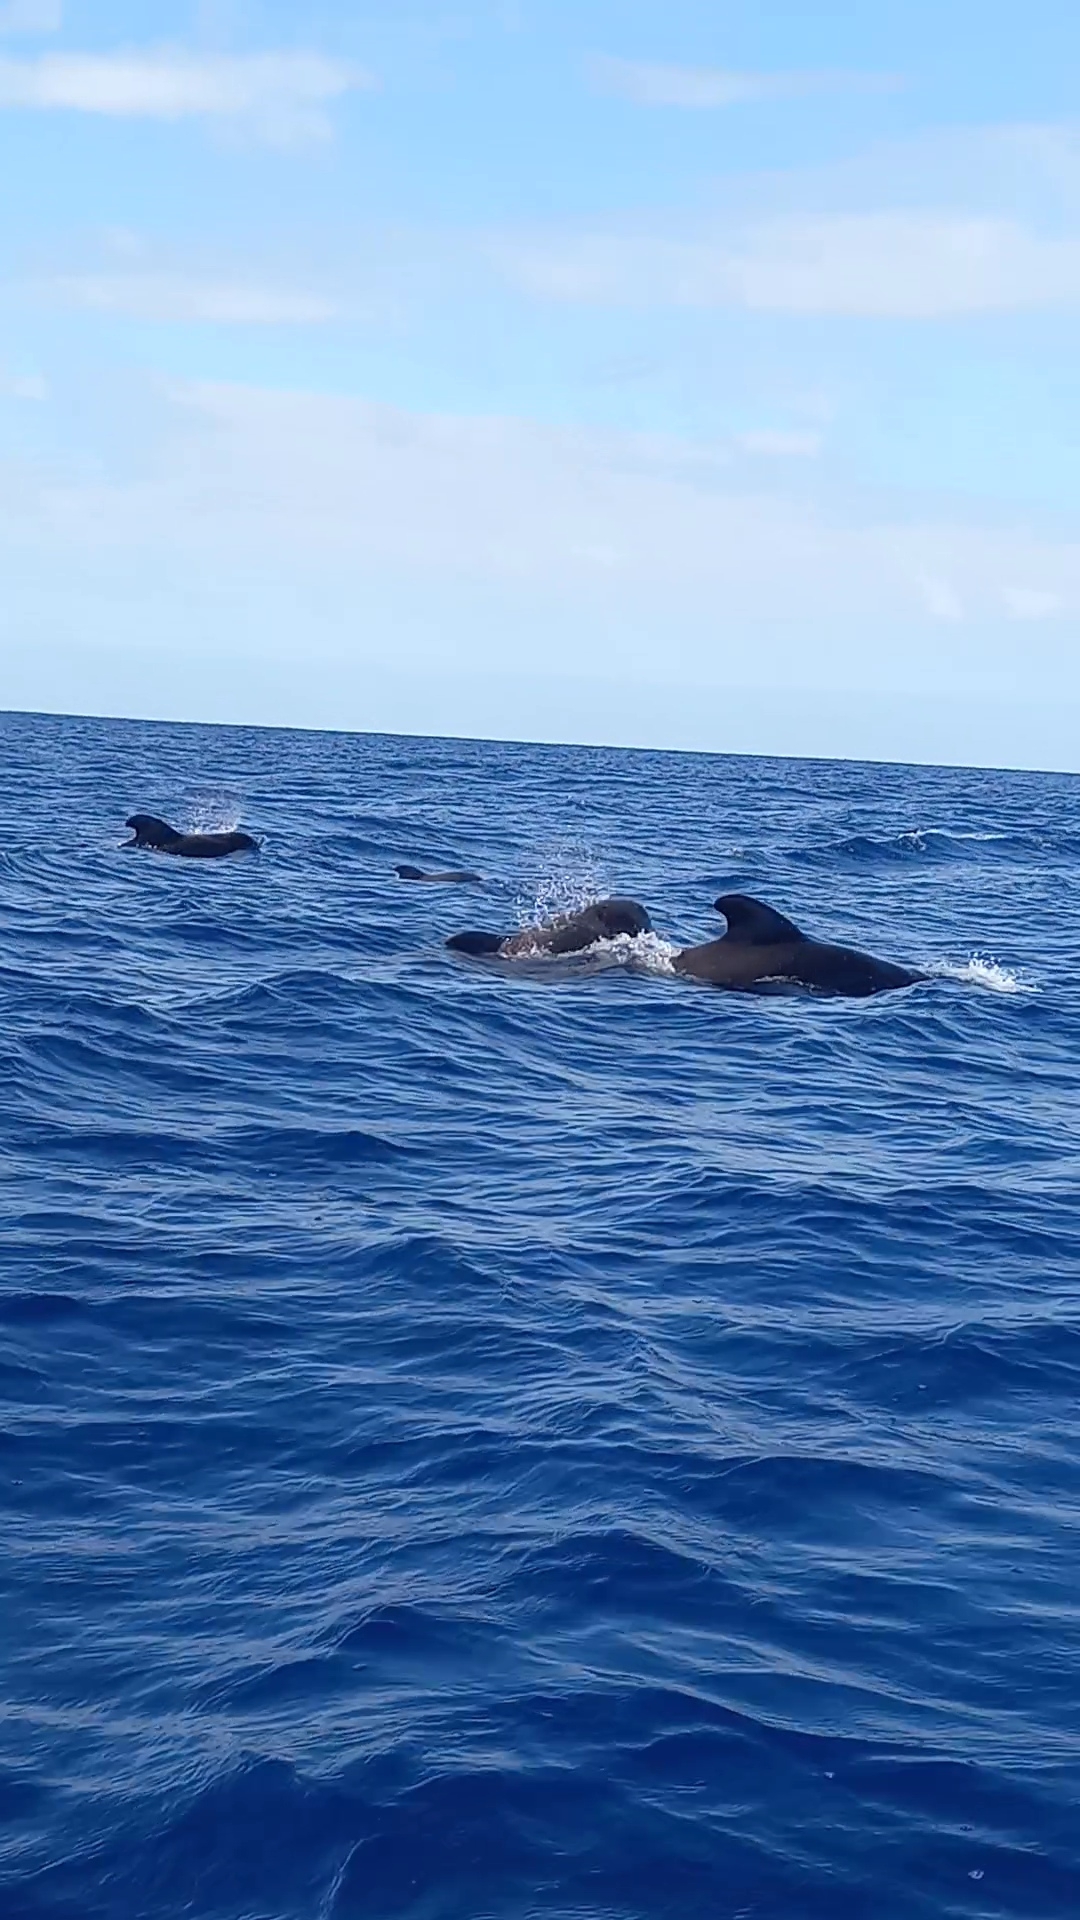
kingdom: Animalia
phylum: Chordata
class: Mammalia
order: Cetacea
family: Delphinidae
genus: Globicephala
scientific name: Globicephala macrorhynchus
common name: Short-finned pilot whale
